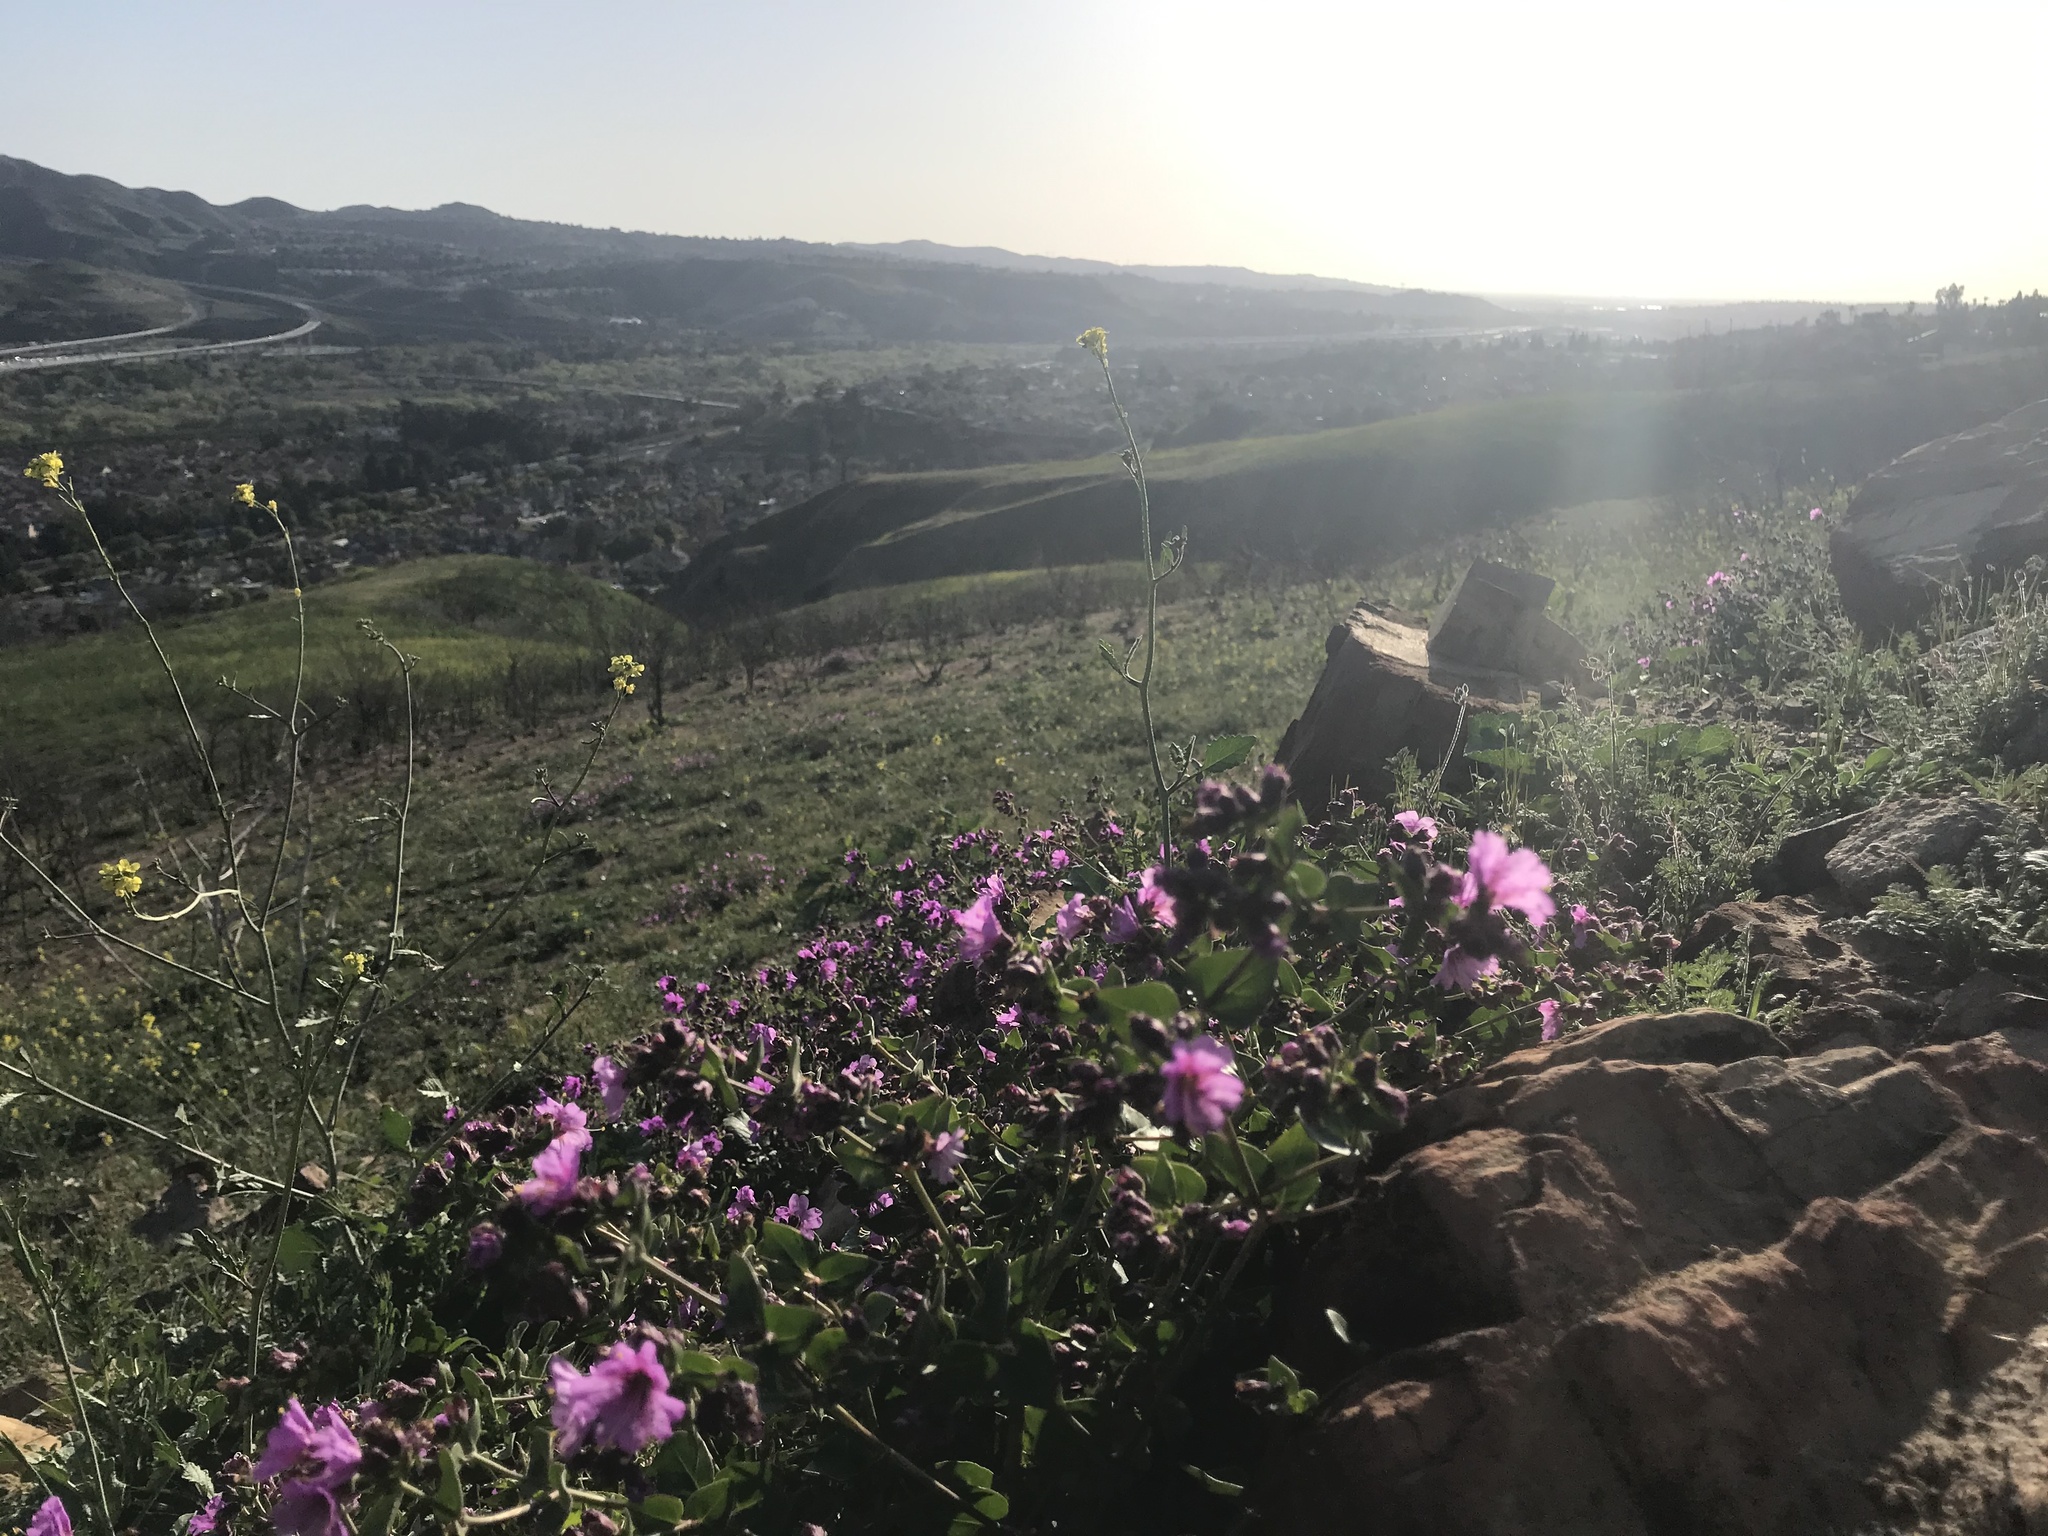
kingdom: Plantae
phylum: Tracheophyta
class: Magnoliopsida
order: Caryophyllales
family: Nyctaginaceae
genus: Mirabilis
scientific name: Mirabilis laevis
